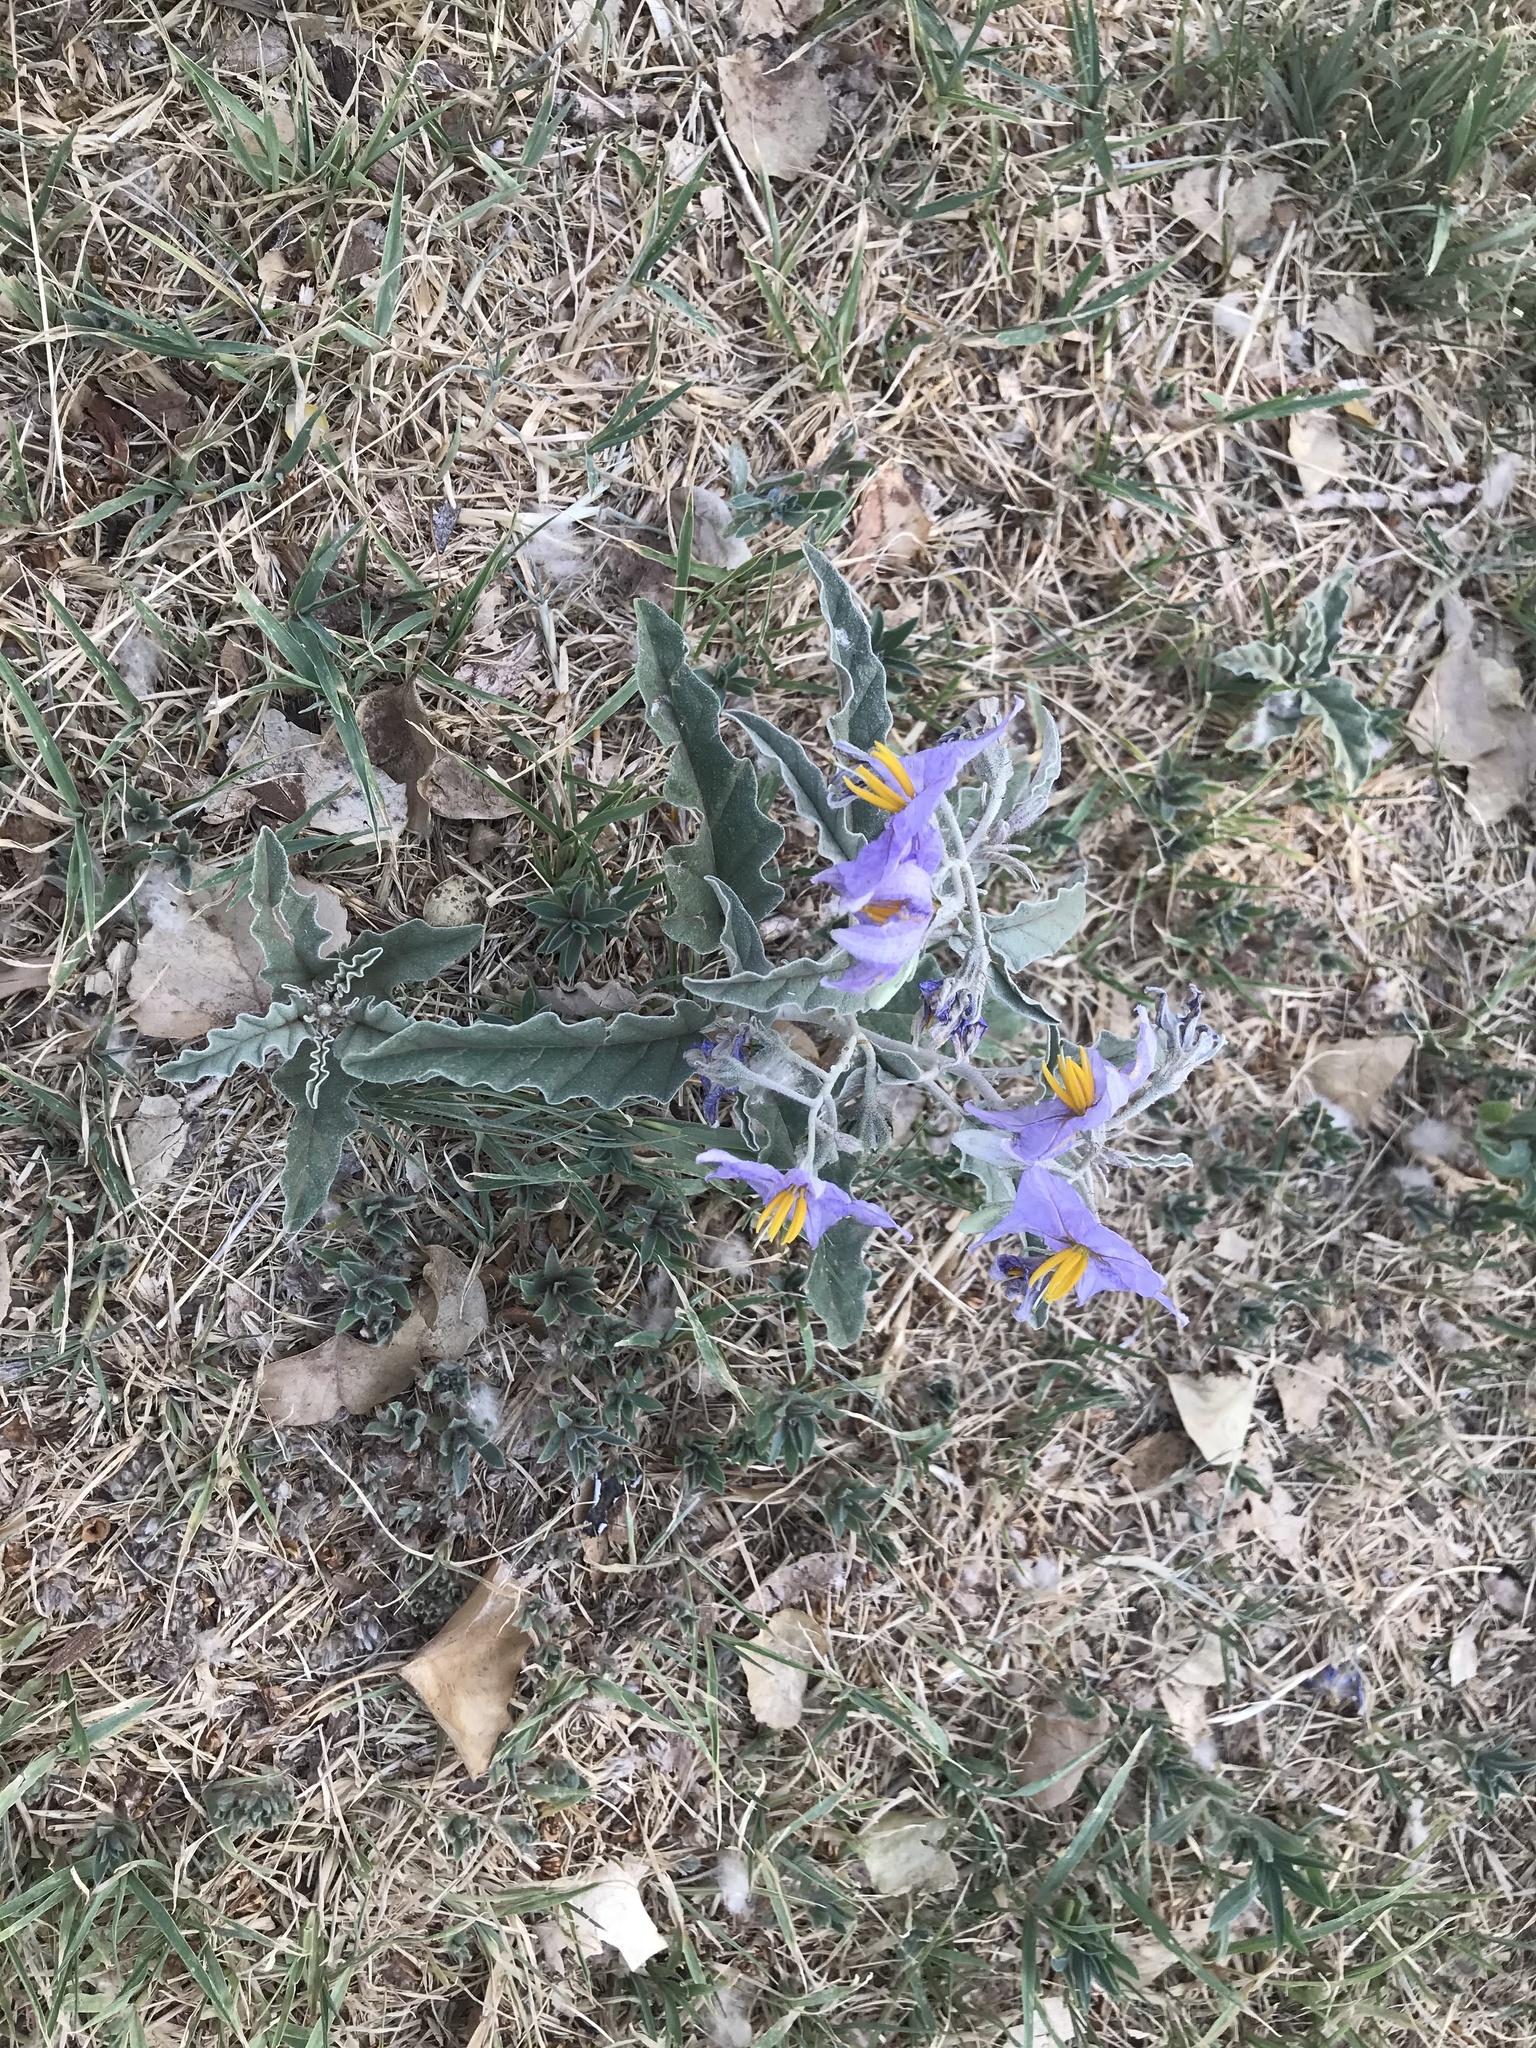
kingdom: Plantae
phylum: Tracheophyta
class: Magnoliopsida
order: Solanales
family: Solanaceae
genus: Solanum
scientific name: Solanum elaeagnifolium
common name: Silverleaf nightshade
